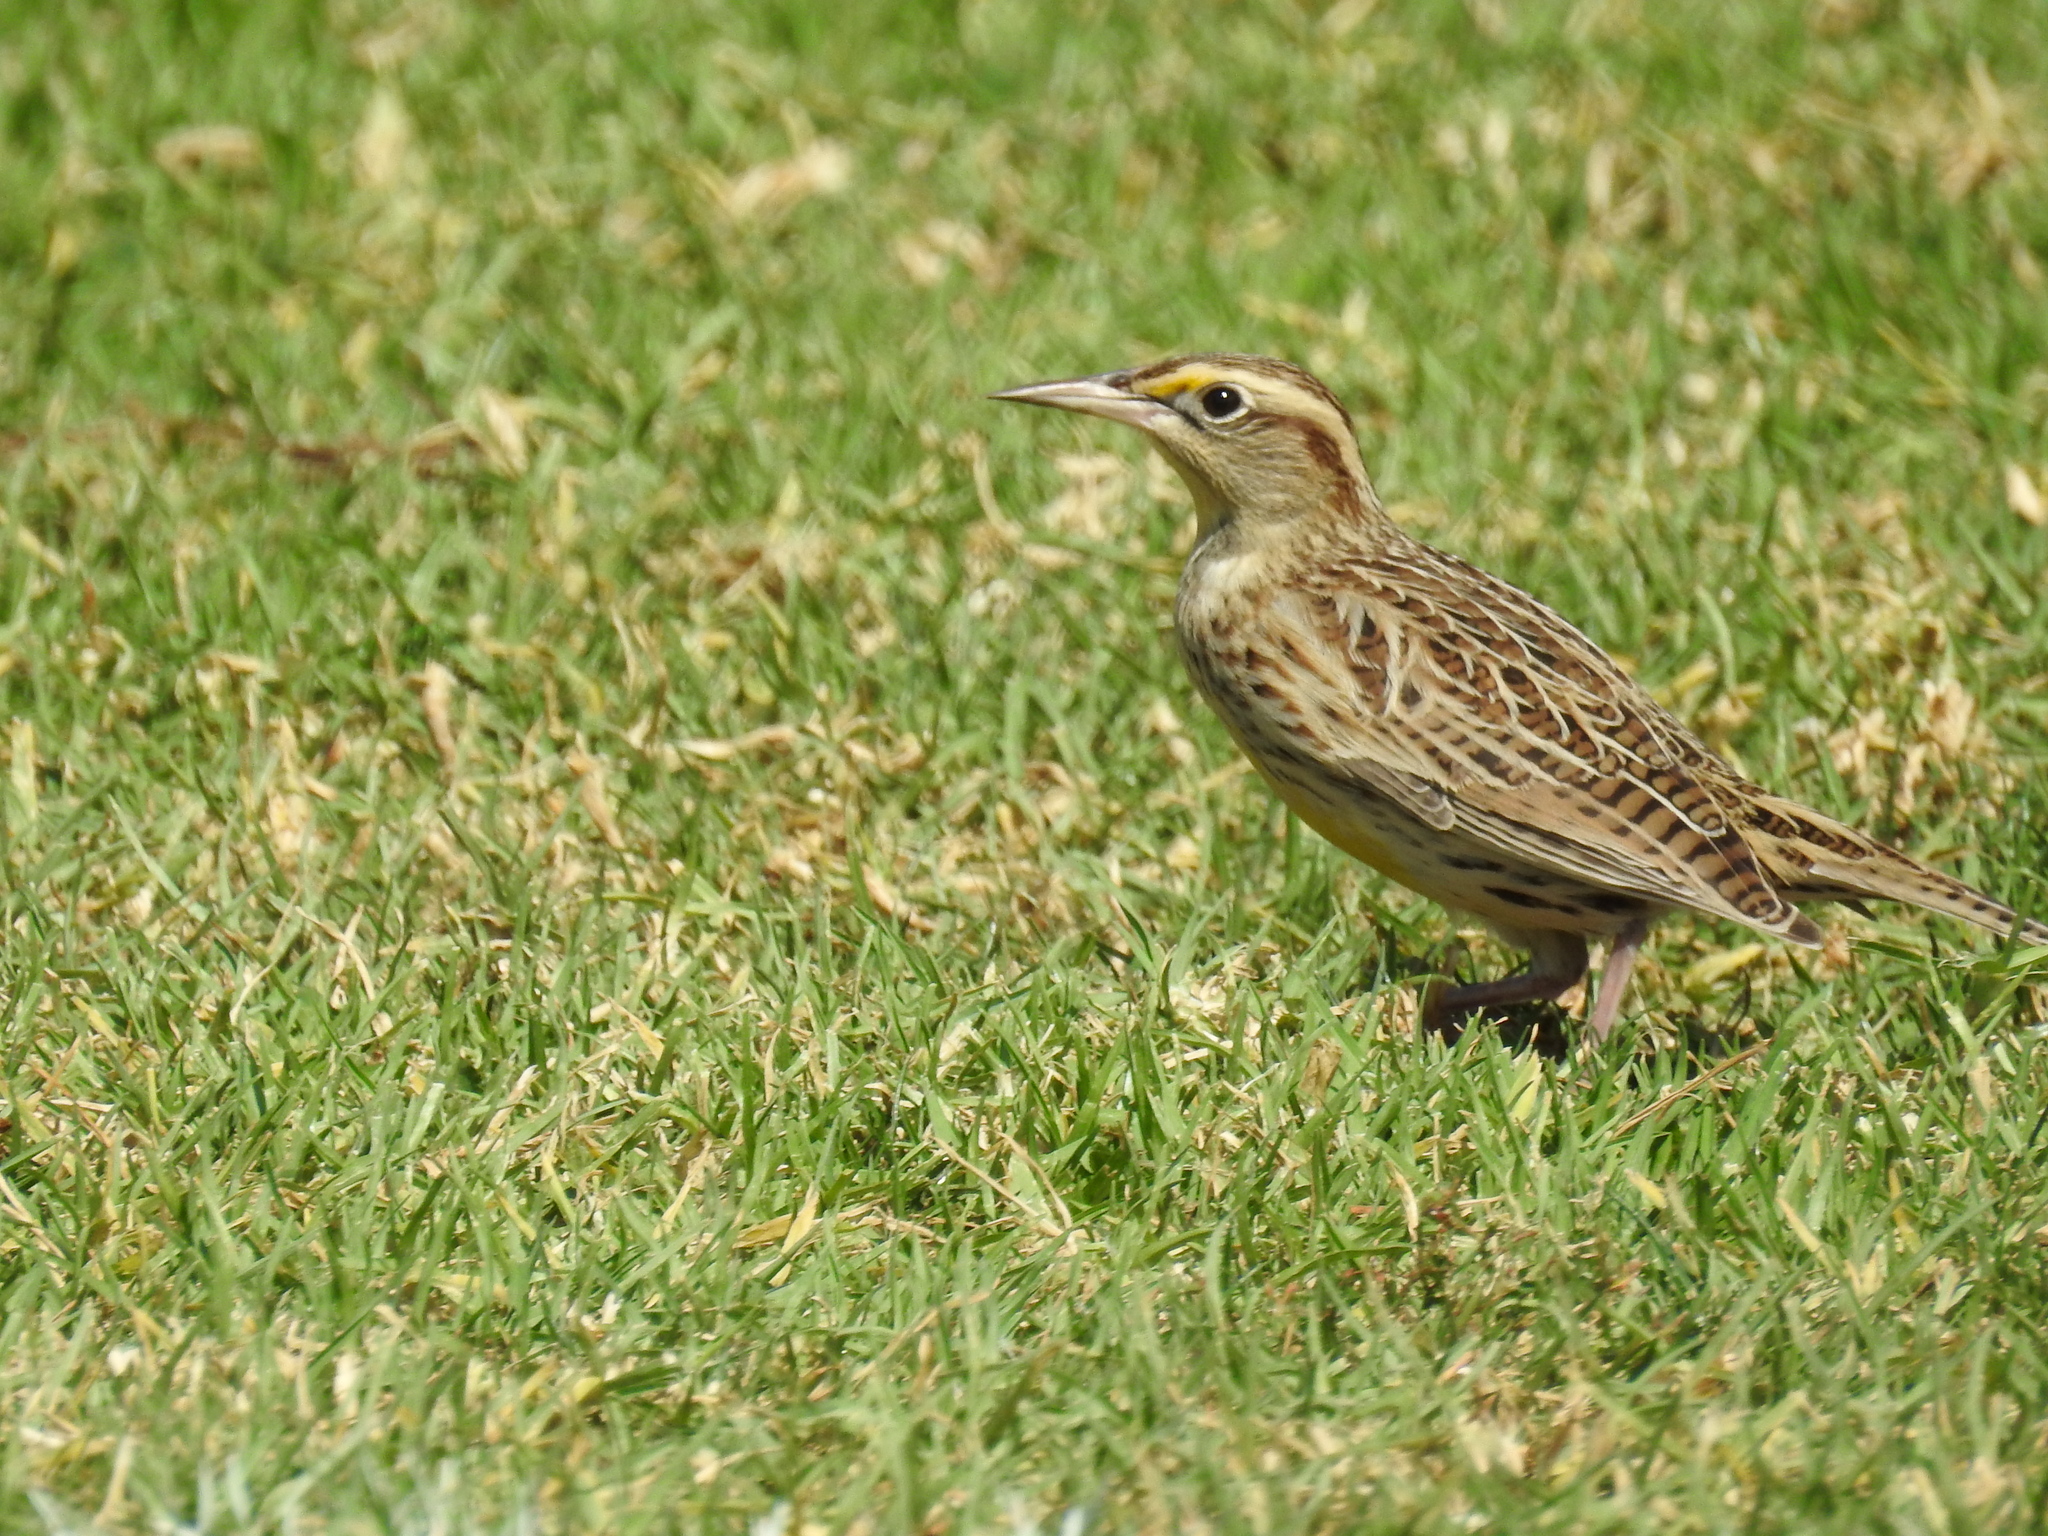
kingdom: Animalia
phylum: Chordata
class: Aves
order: Passeriformes
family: Icteridae
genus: Sturnella
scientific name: Sturnella neglecta
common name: Western meadowlark
